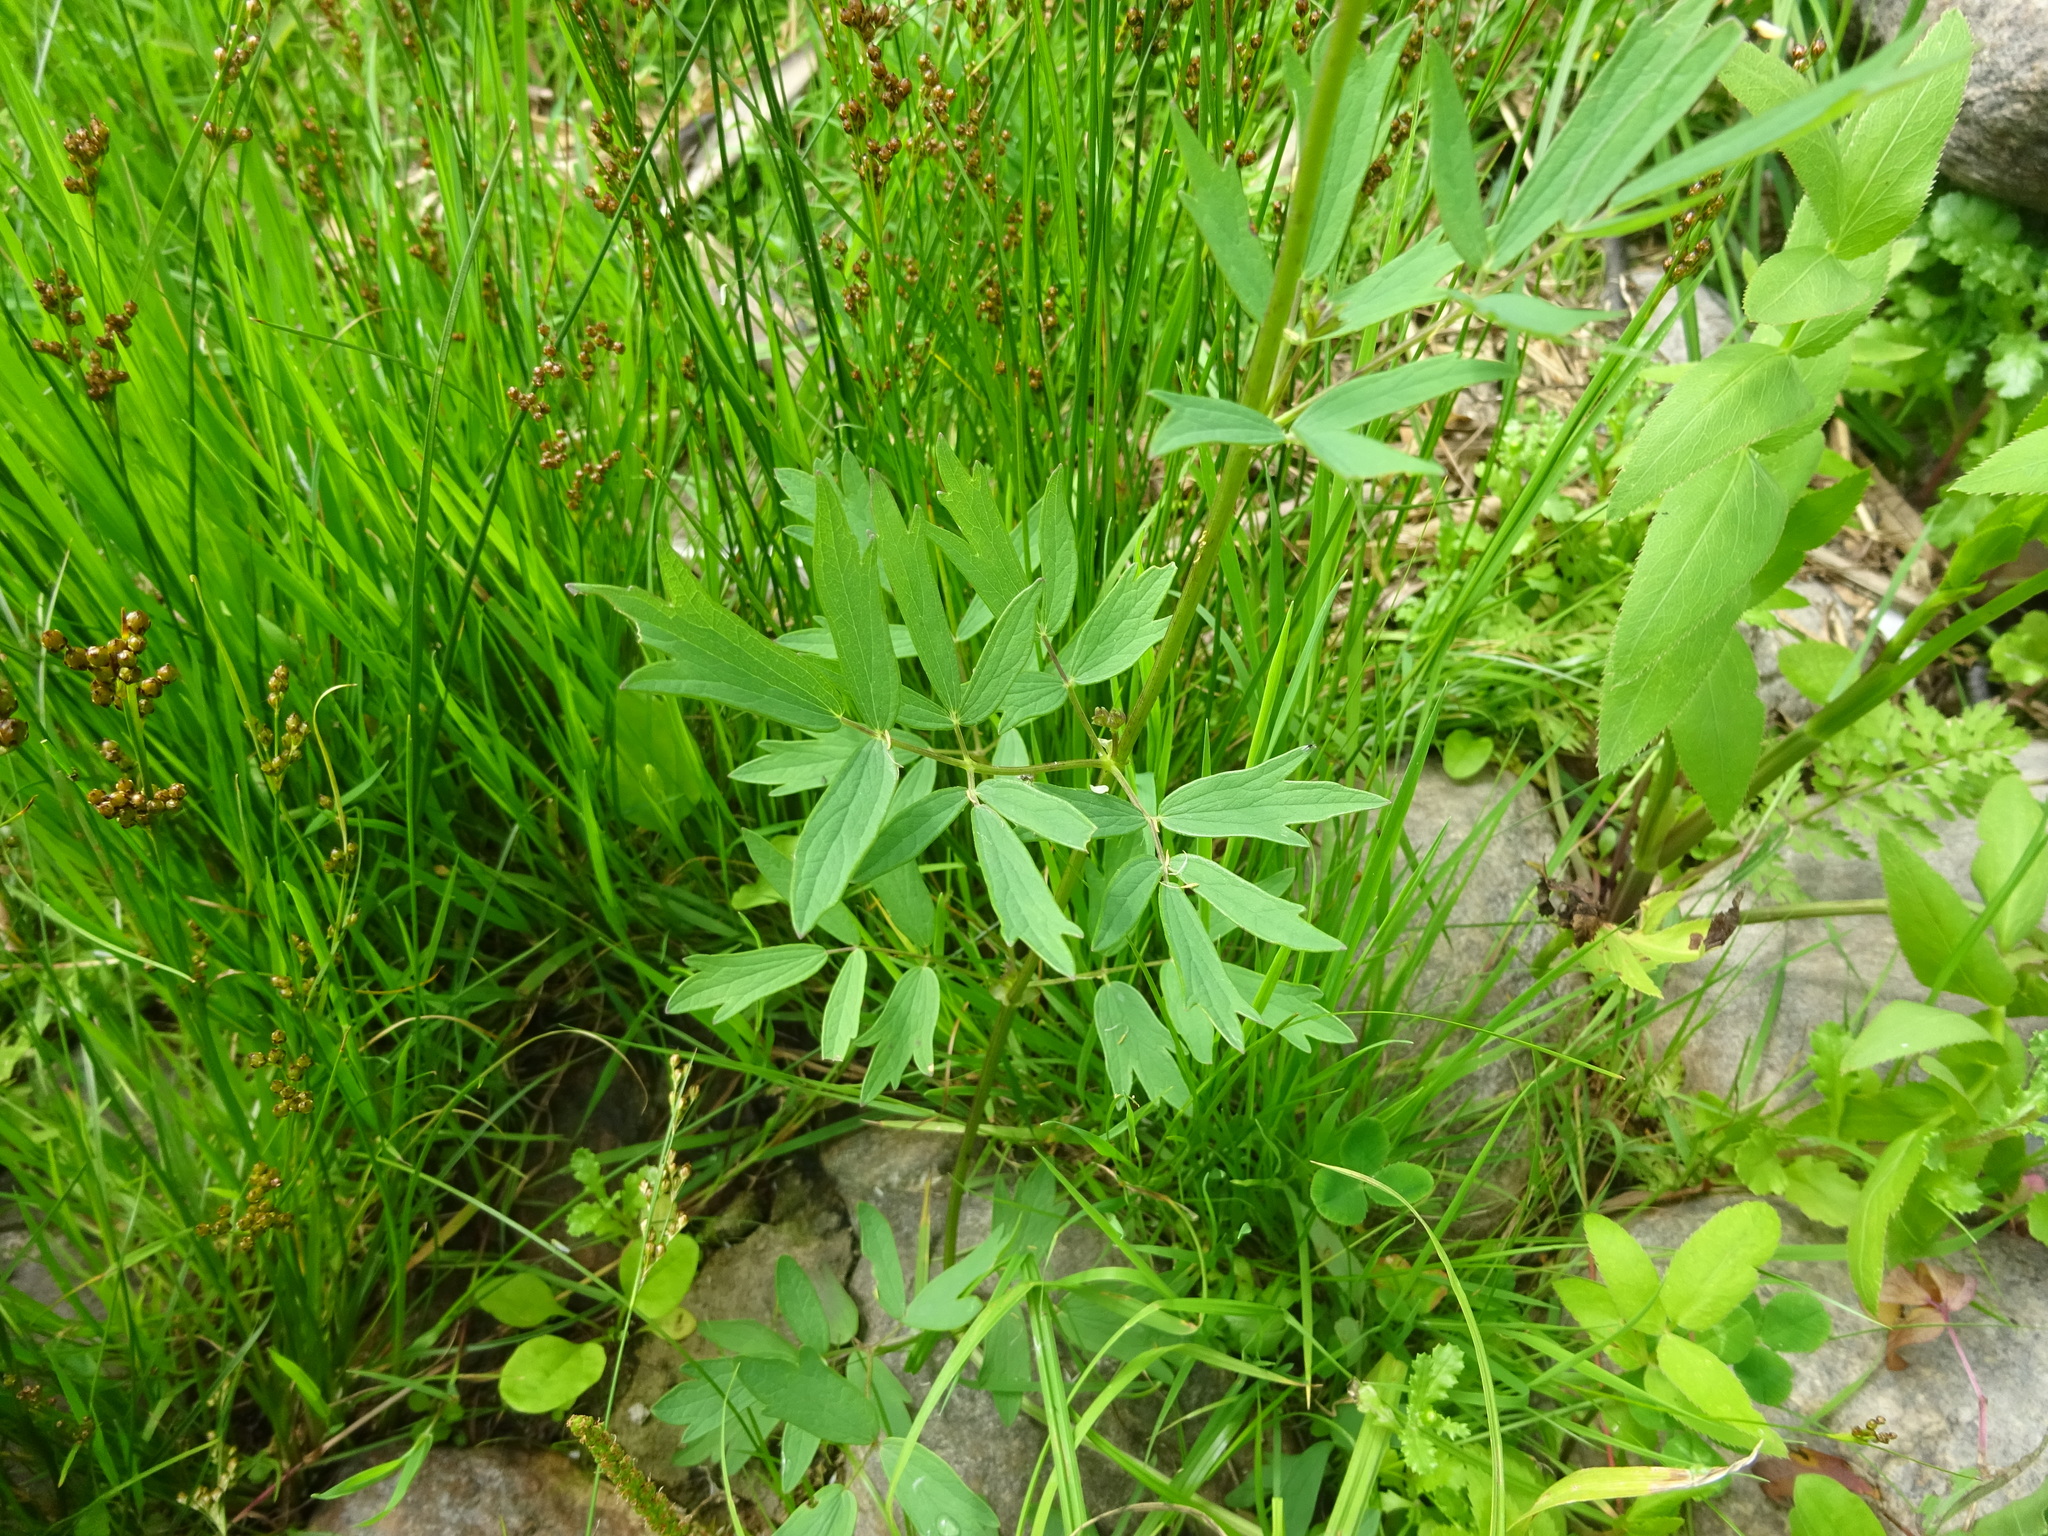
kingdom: Plantae
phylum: Tracheophyta
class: Magnoliopsida
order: Ranunculales
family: Ranunculaceae
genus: Thalictrum
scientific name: Thalictrum lucidum
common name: Shining meadow-rue
